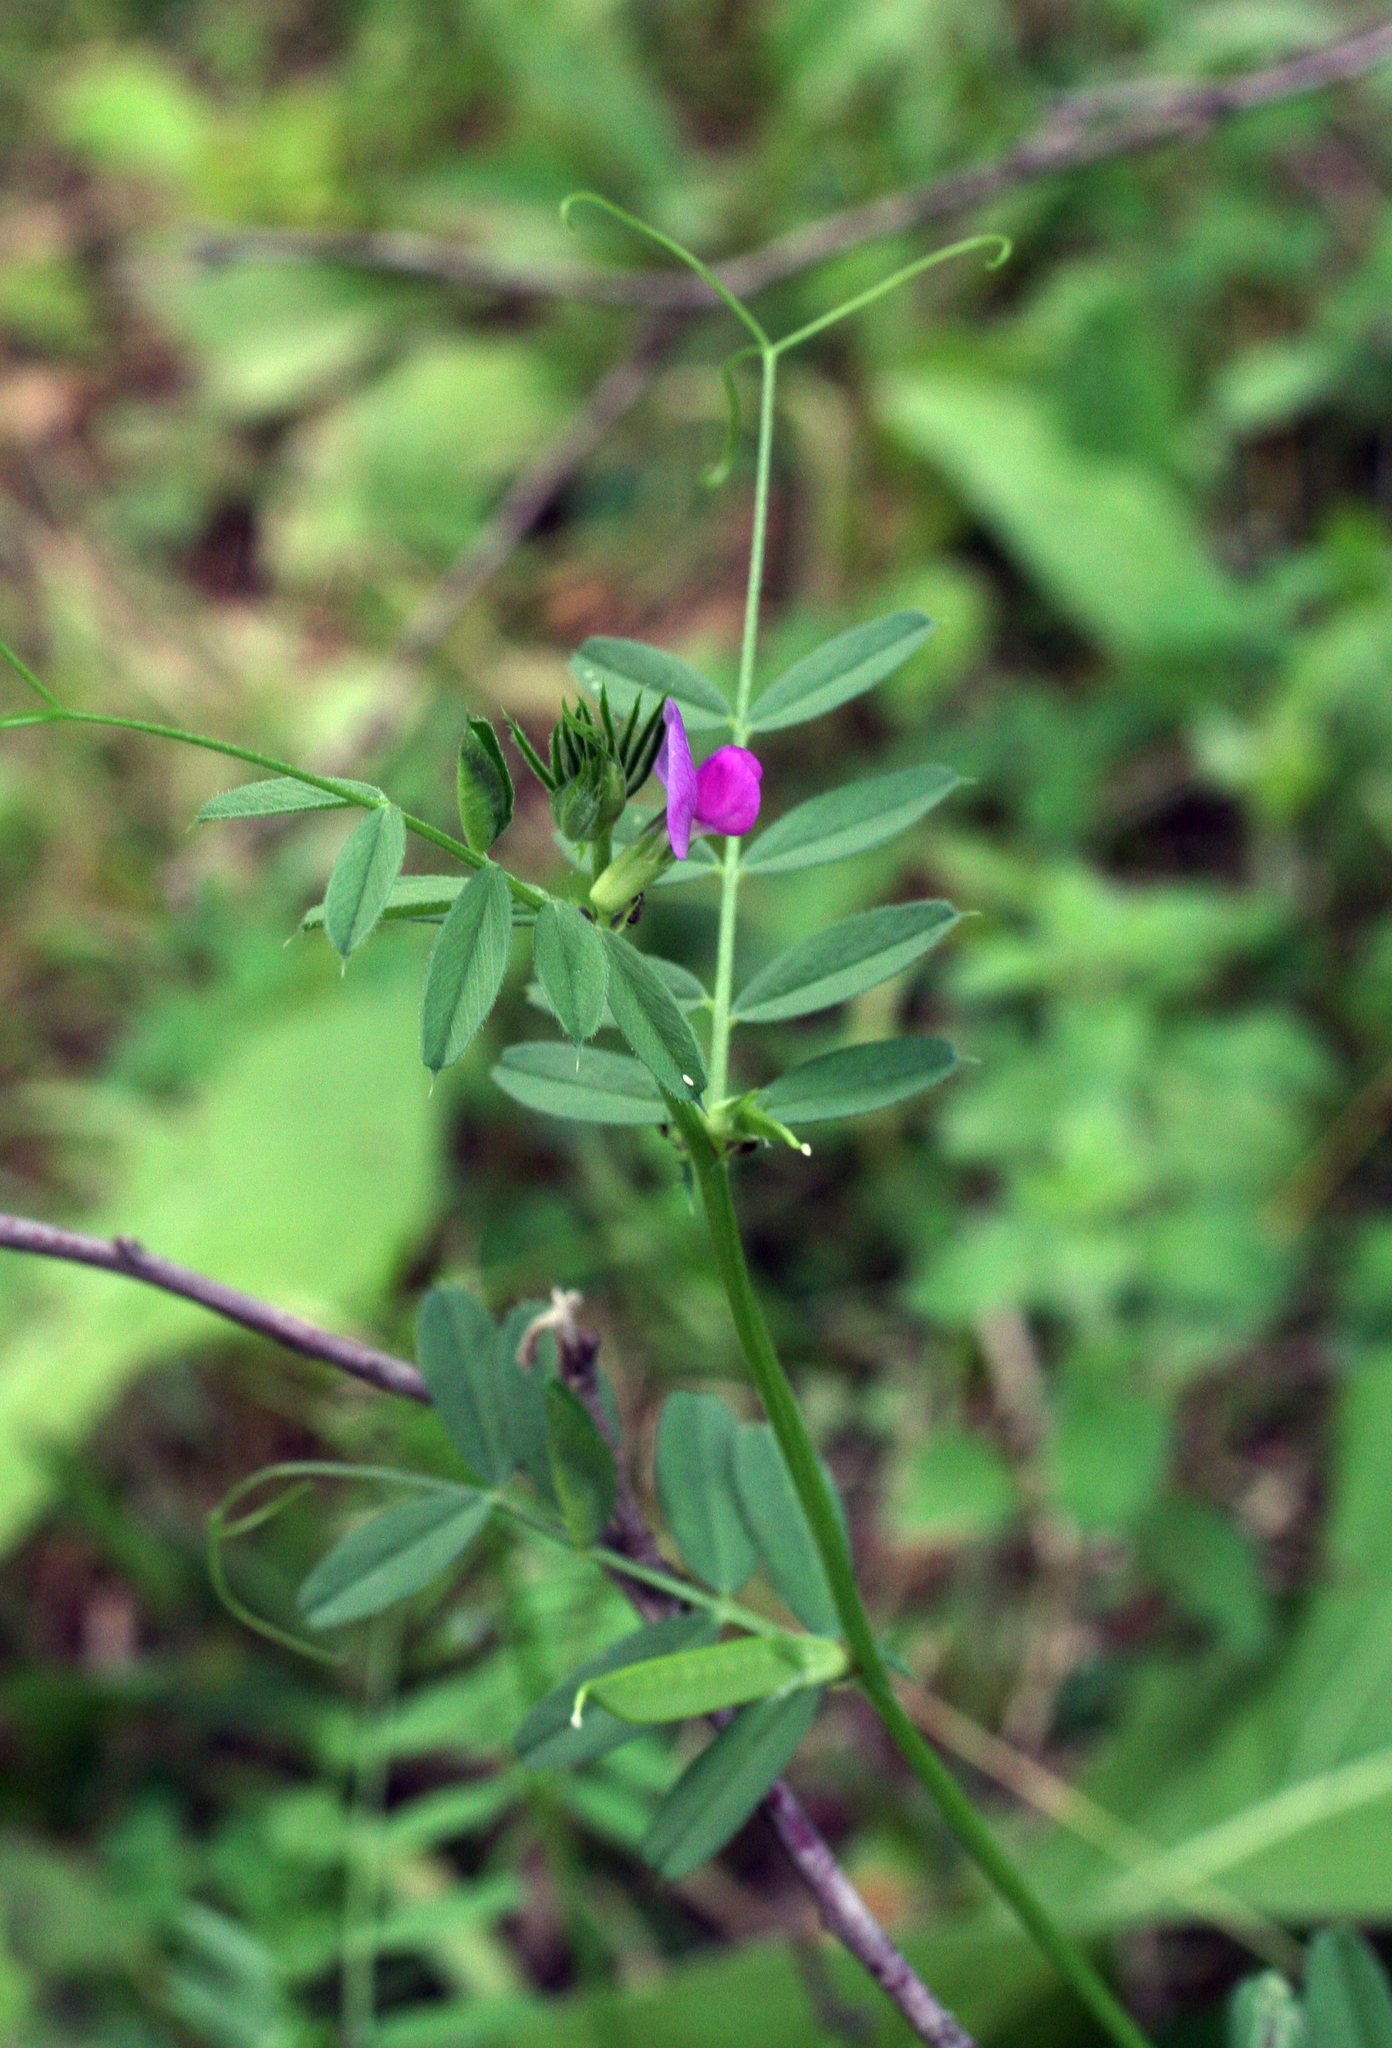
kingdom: Plantae
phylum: Tracheophyta
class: Magnoliopsida
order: Fabales
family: Fabaceae
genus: Vicia
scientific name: Vicia sativa
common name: Garden vetch
